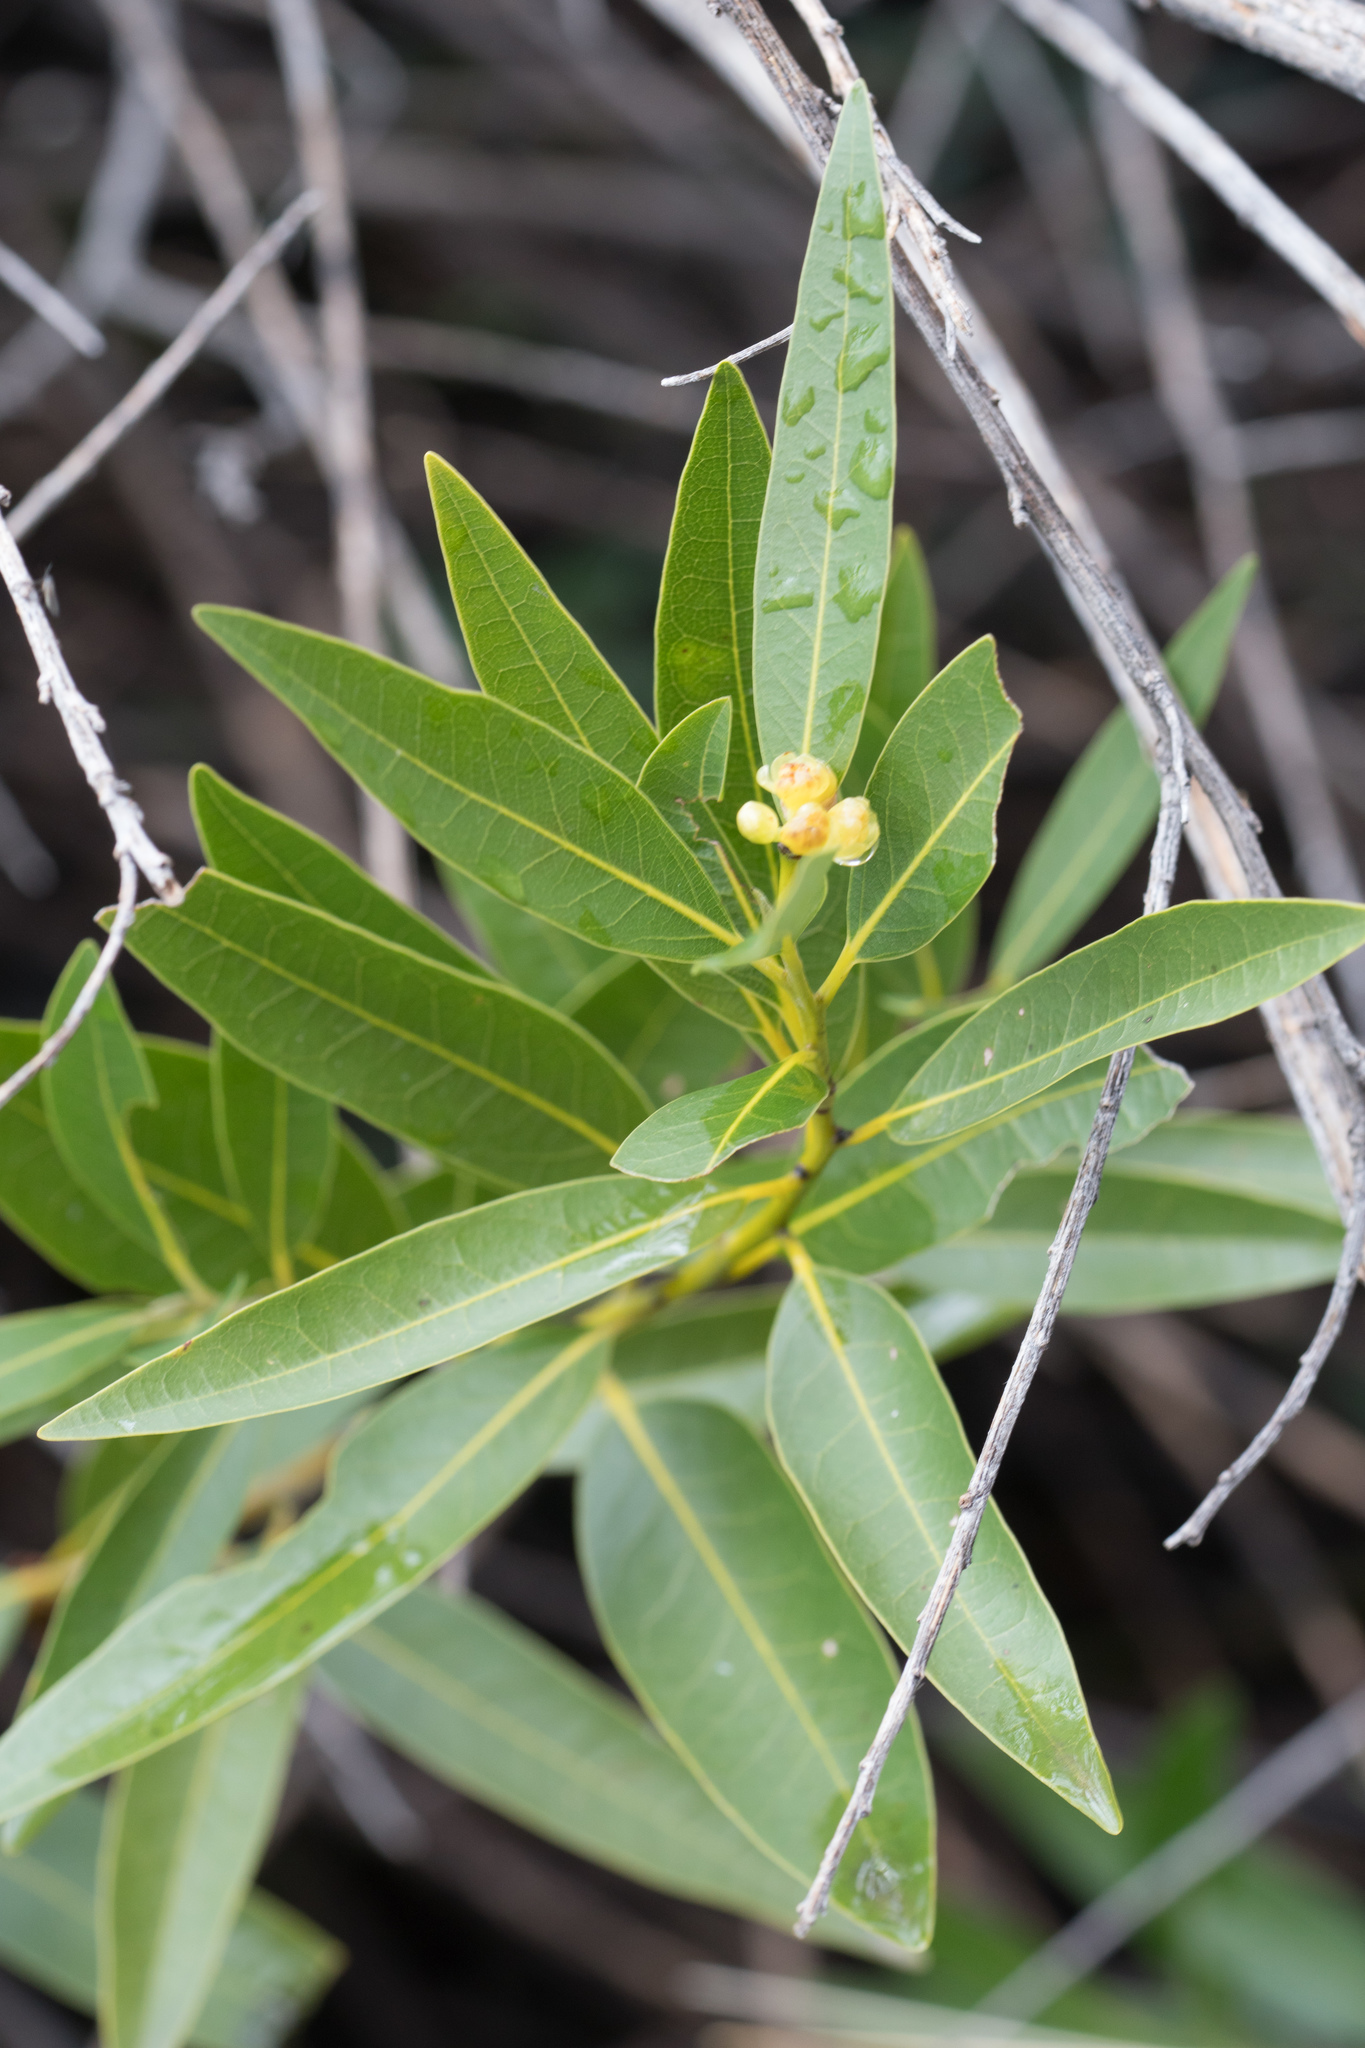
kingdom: Plantae
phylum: Tracheophyta
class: Magnoliopsida
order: Laurales
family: Lauraceae
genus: Umbellularia
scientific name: Umbellularia californica
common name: California bay
